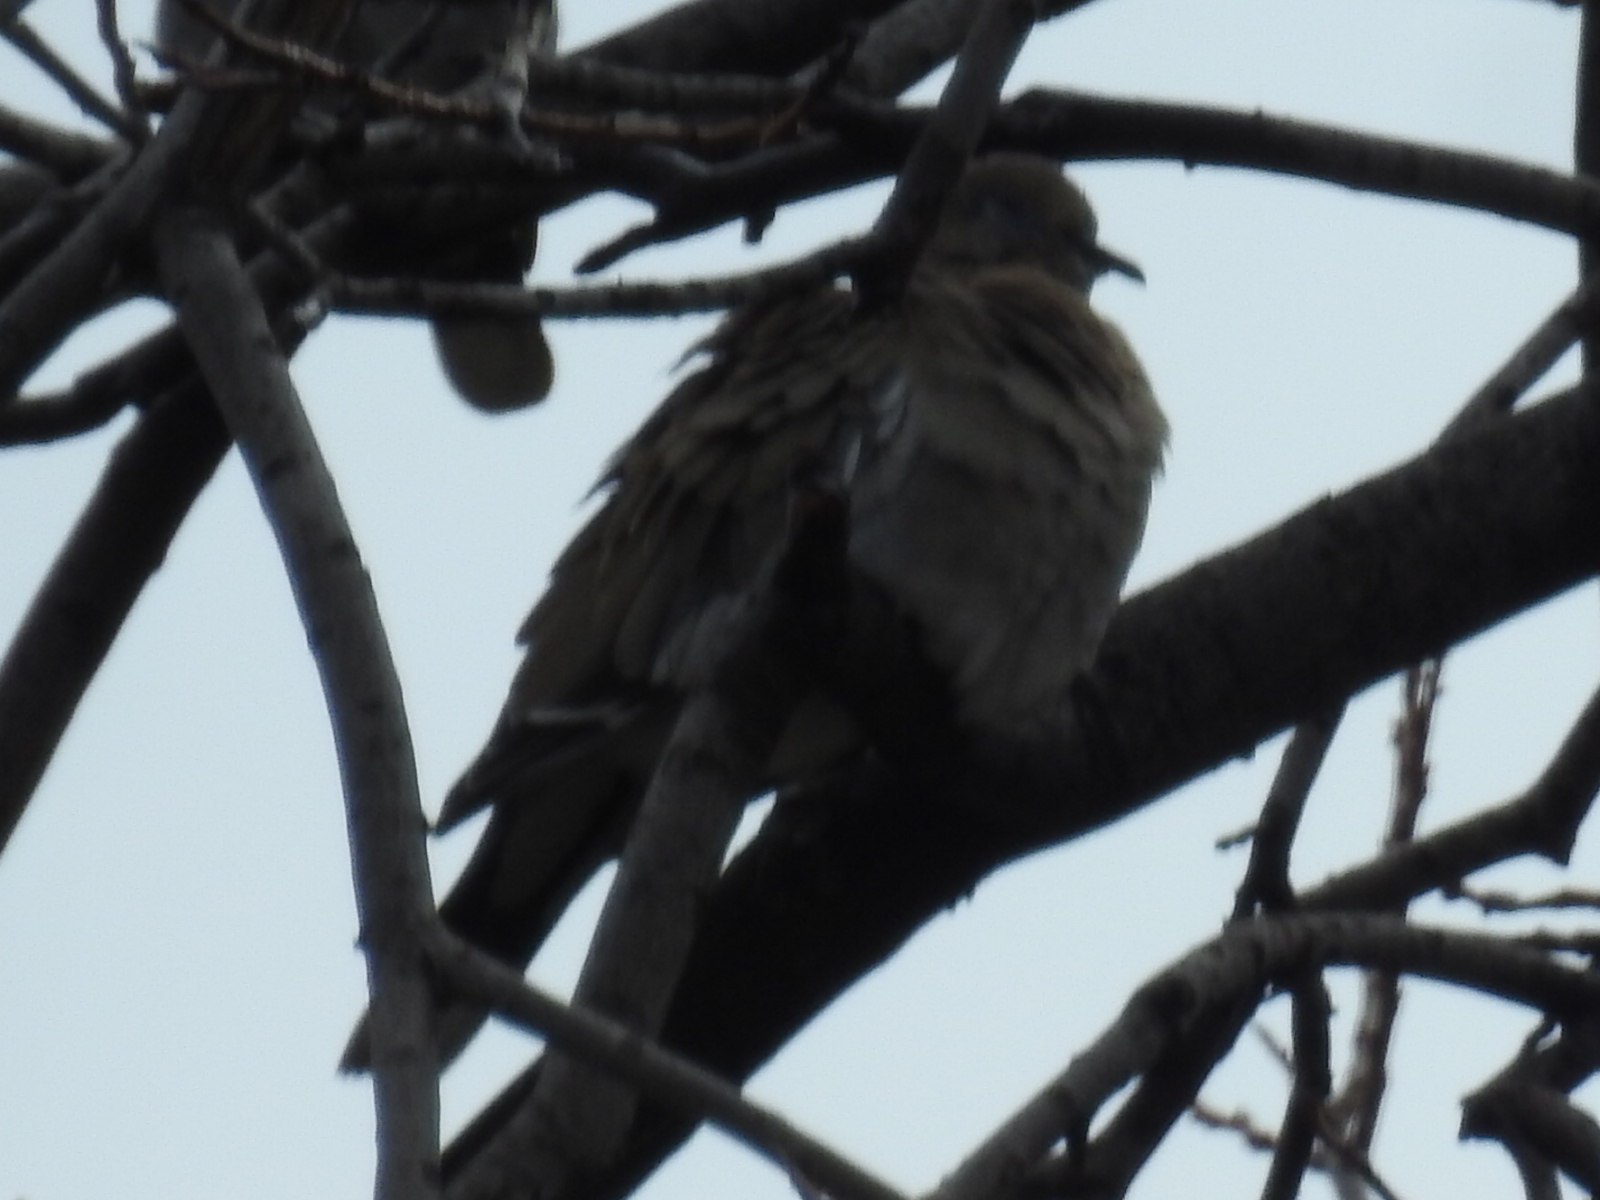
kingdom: Animalia
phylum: Chordata
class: Aves
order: Columbiformes
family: Columbidae
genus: Zenaida
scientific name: Zenaida macroura
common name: Mourning dove
